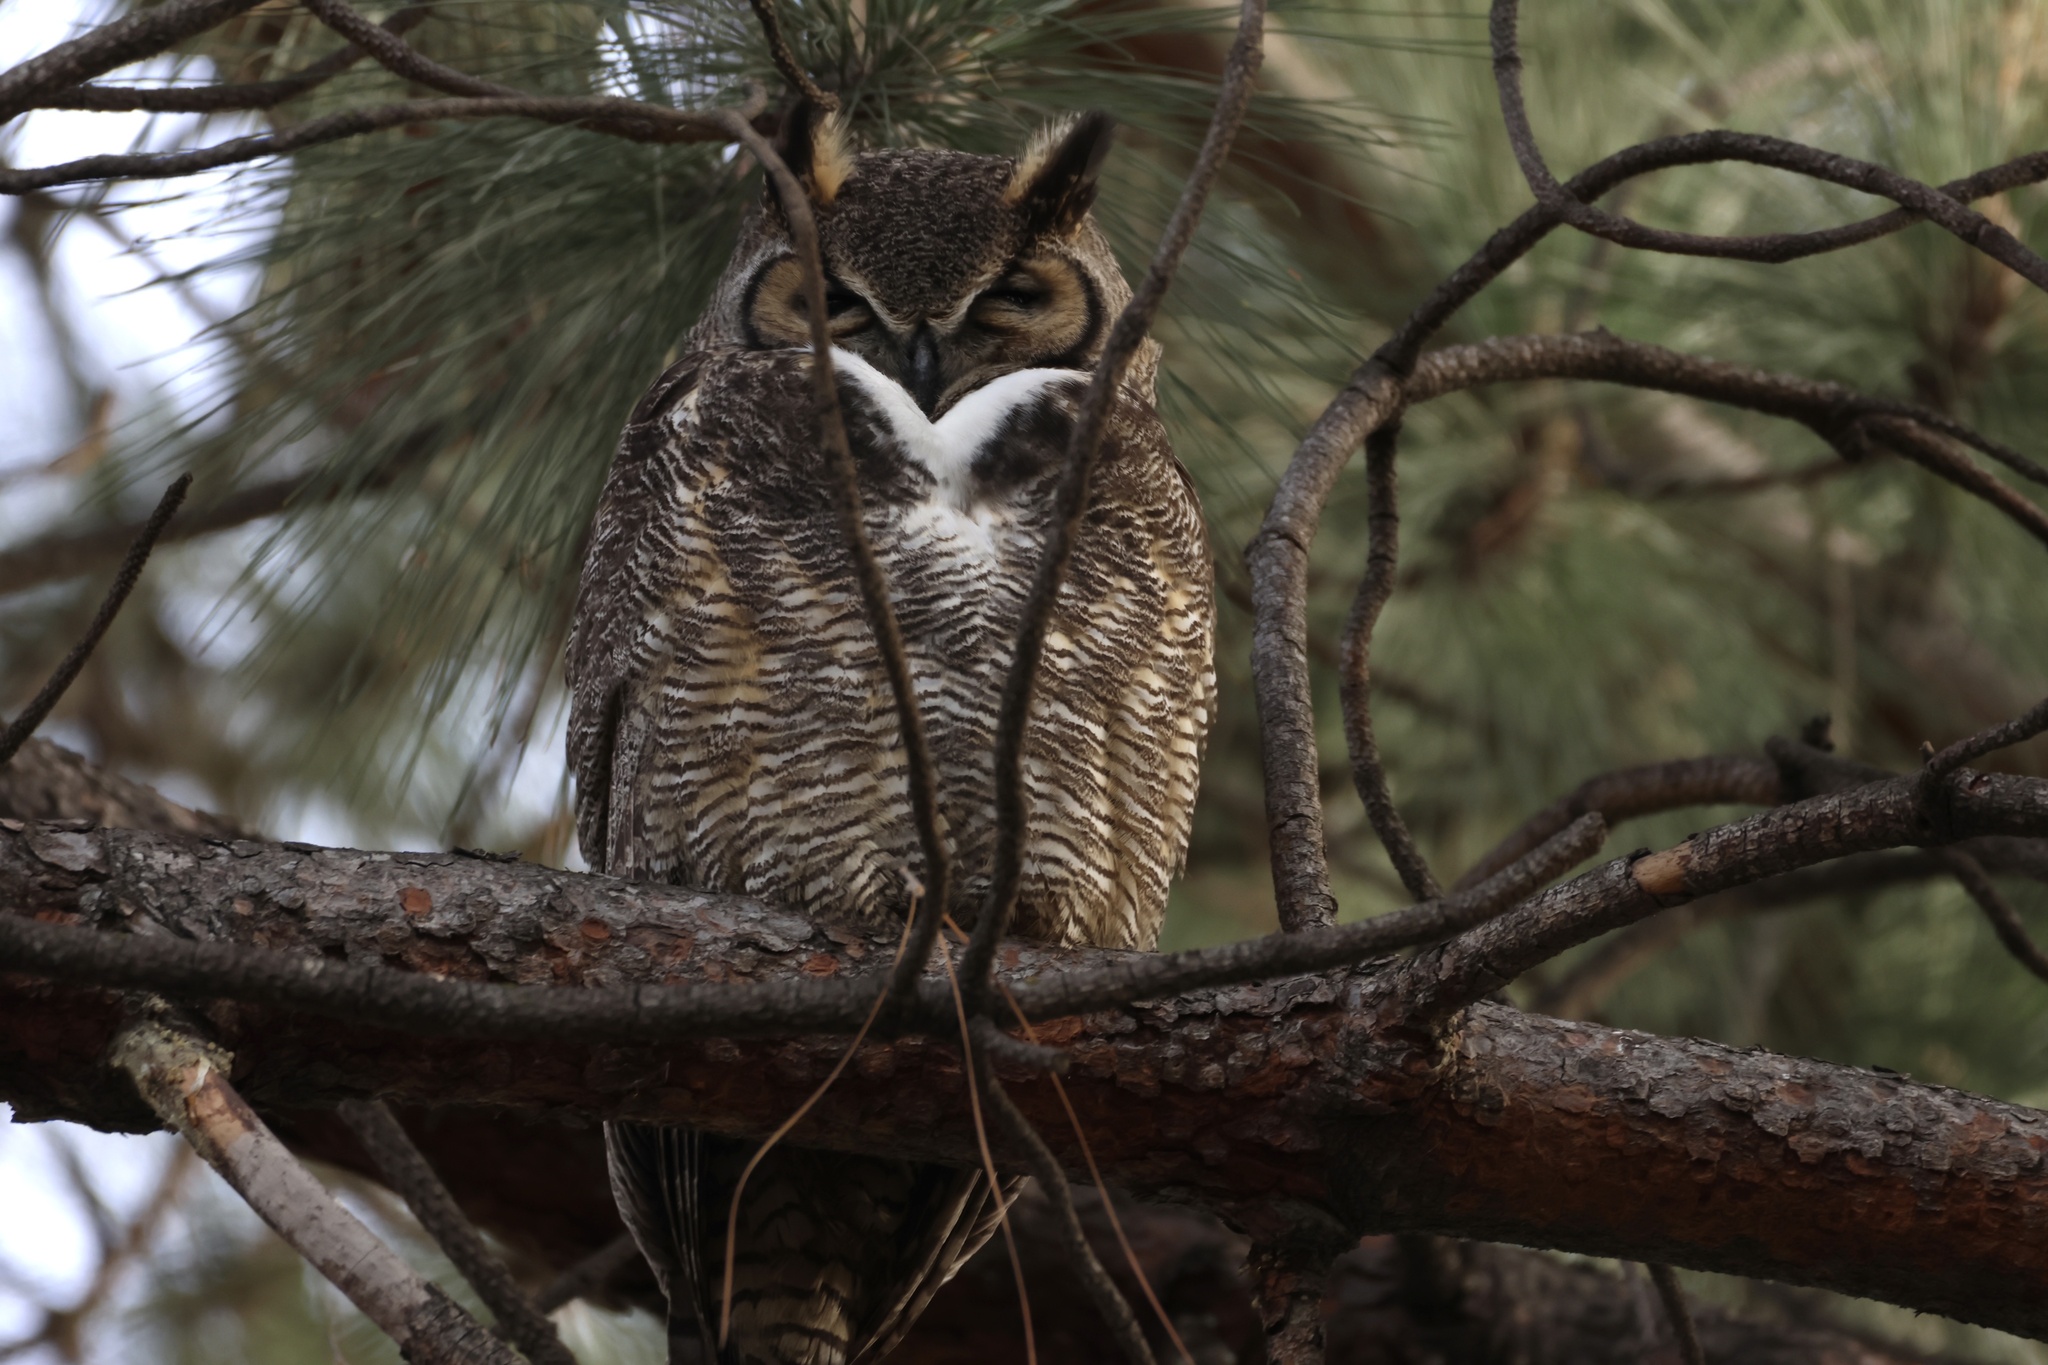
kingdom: Animalia
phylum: Chordata
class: Aves
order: Strigiformes
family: Strigidae
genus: Bubo
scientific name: Bubo virginianus
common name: Great horned owl
